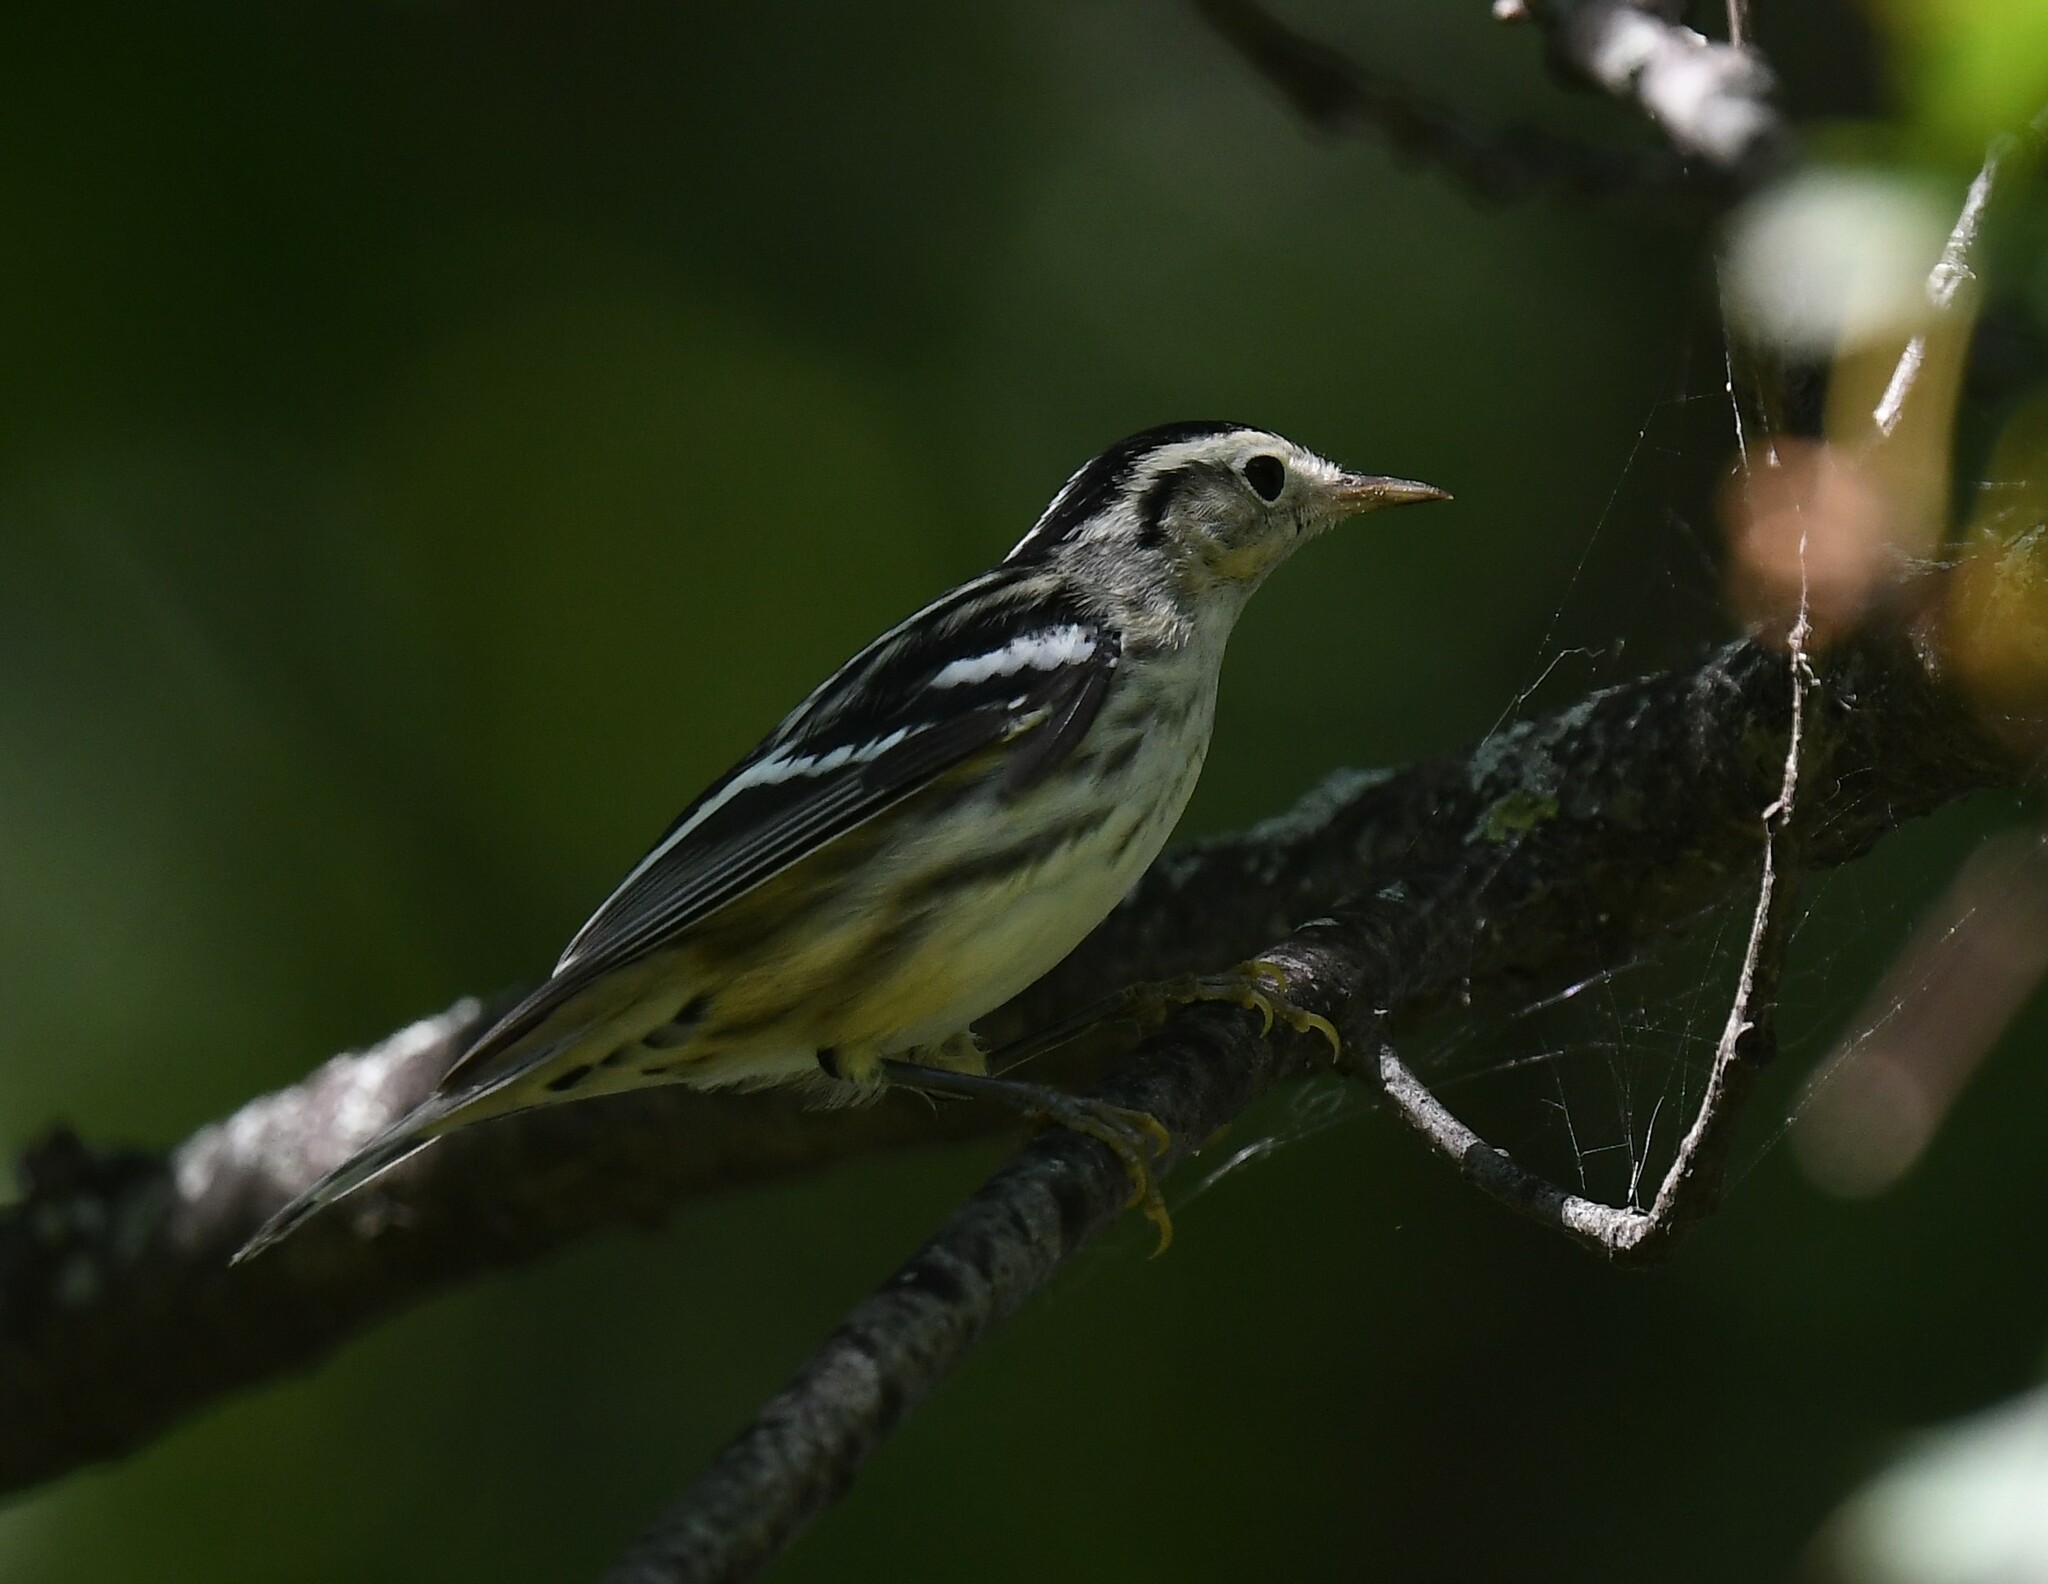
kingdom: Animalia
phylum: Chordata
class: Aves
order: Passeriformes
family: Parulidae
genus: Mniotilta
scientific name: Mniotilta varia
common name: Black-and-white warbler
